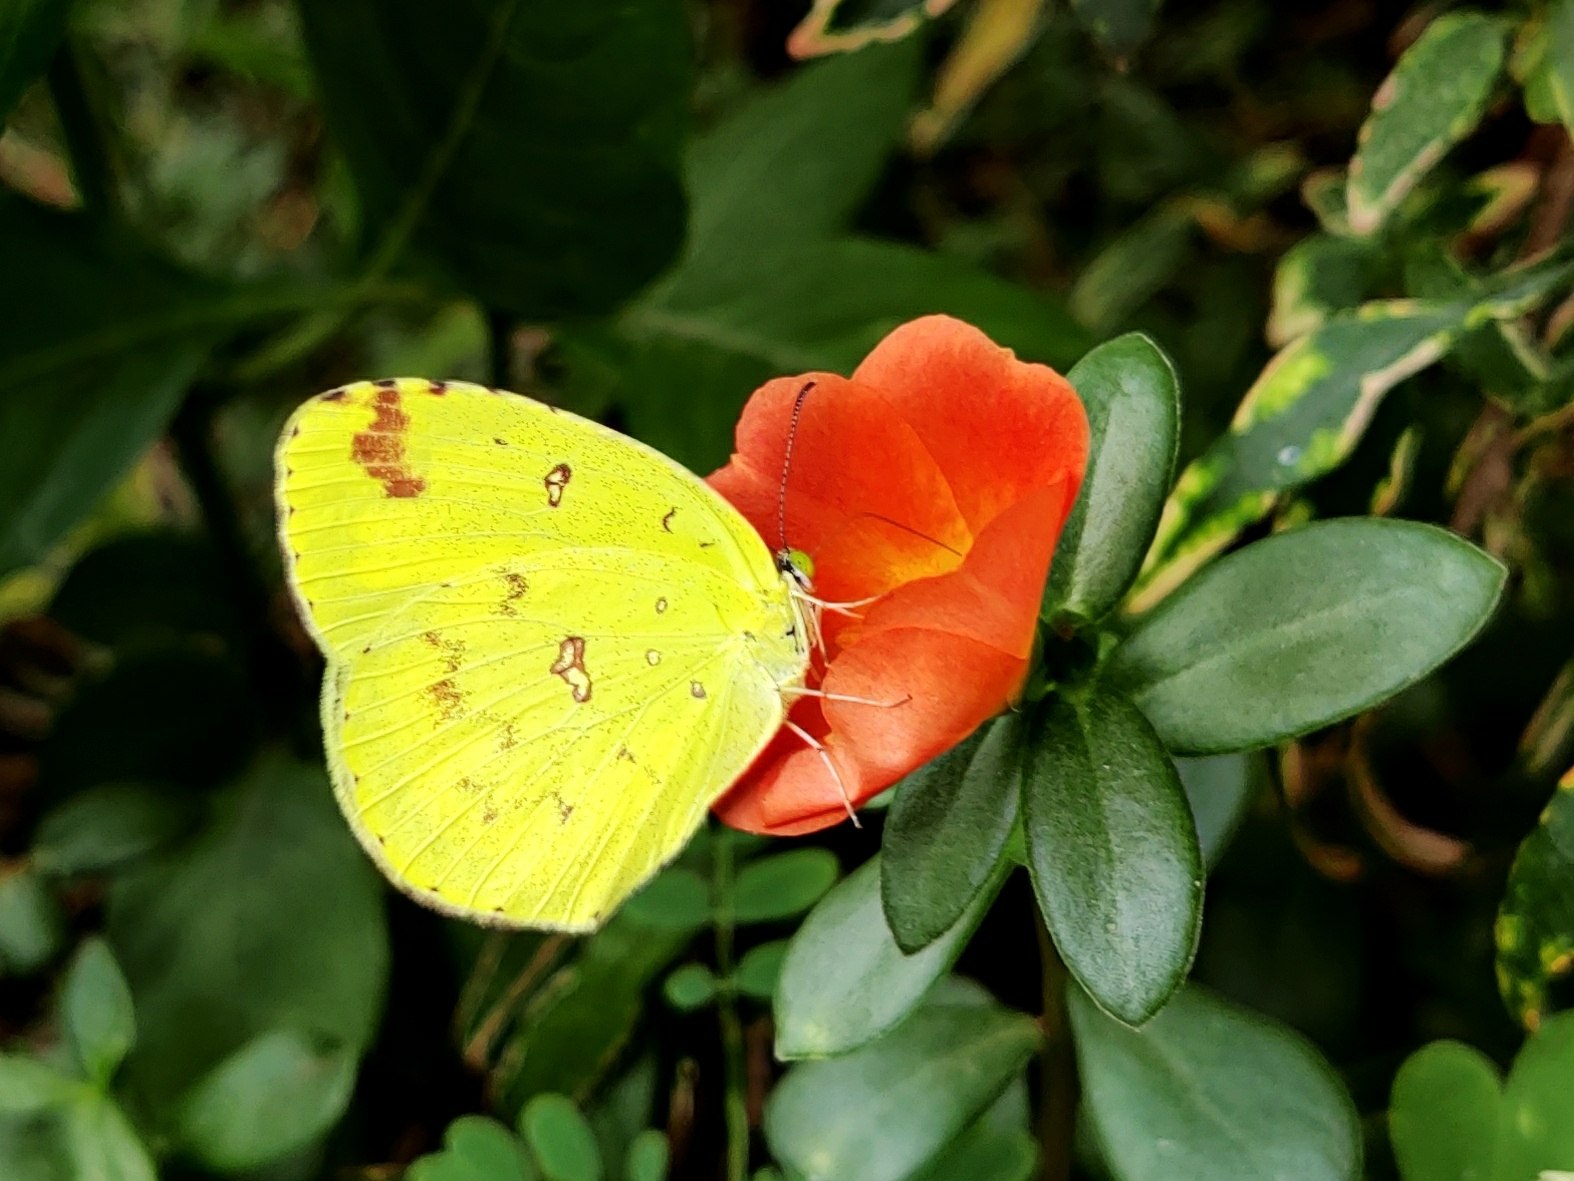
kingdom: Animalia
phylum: Arthropoda
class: Insecta
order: Lepidoptera
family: Pieridae
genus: Eurema
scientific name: Eurema hecabe
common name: Pale grass yellow
